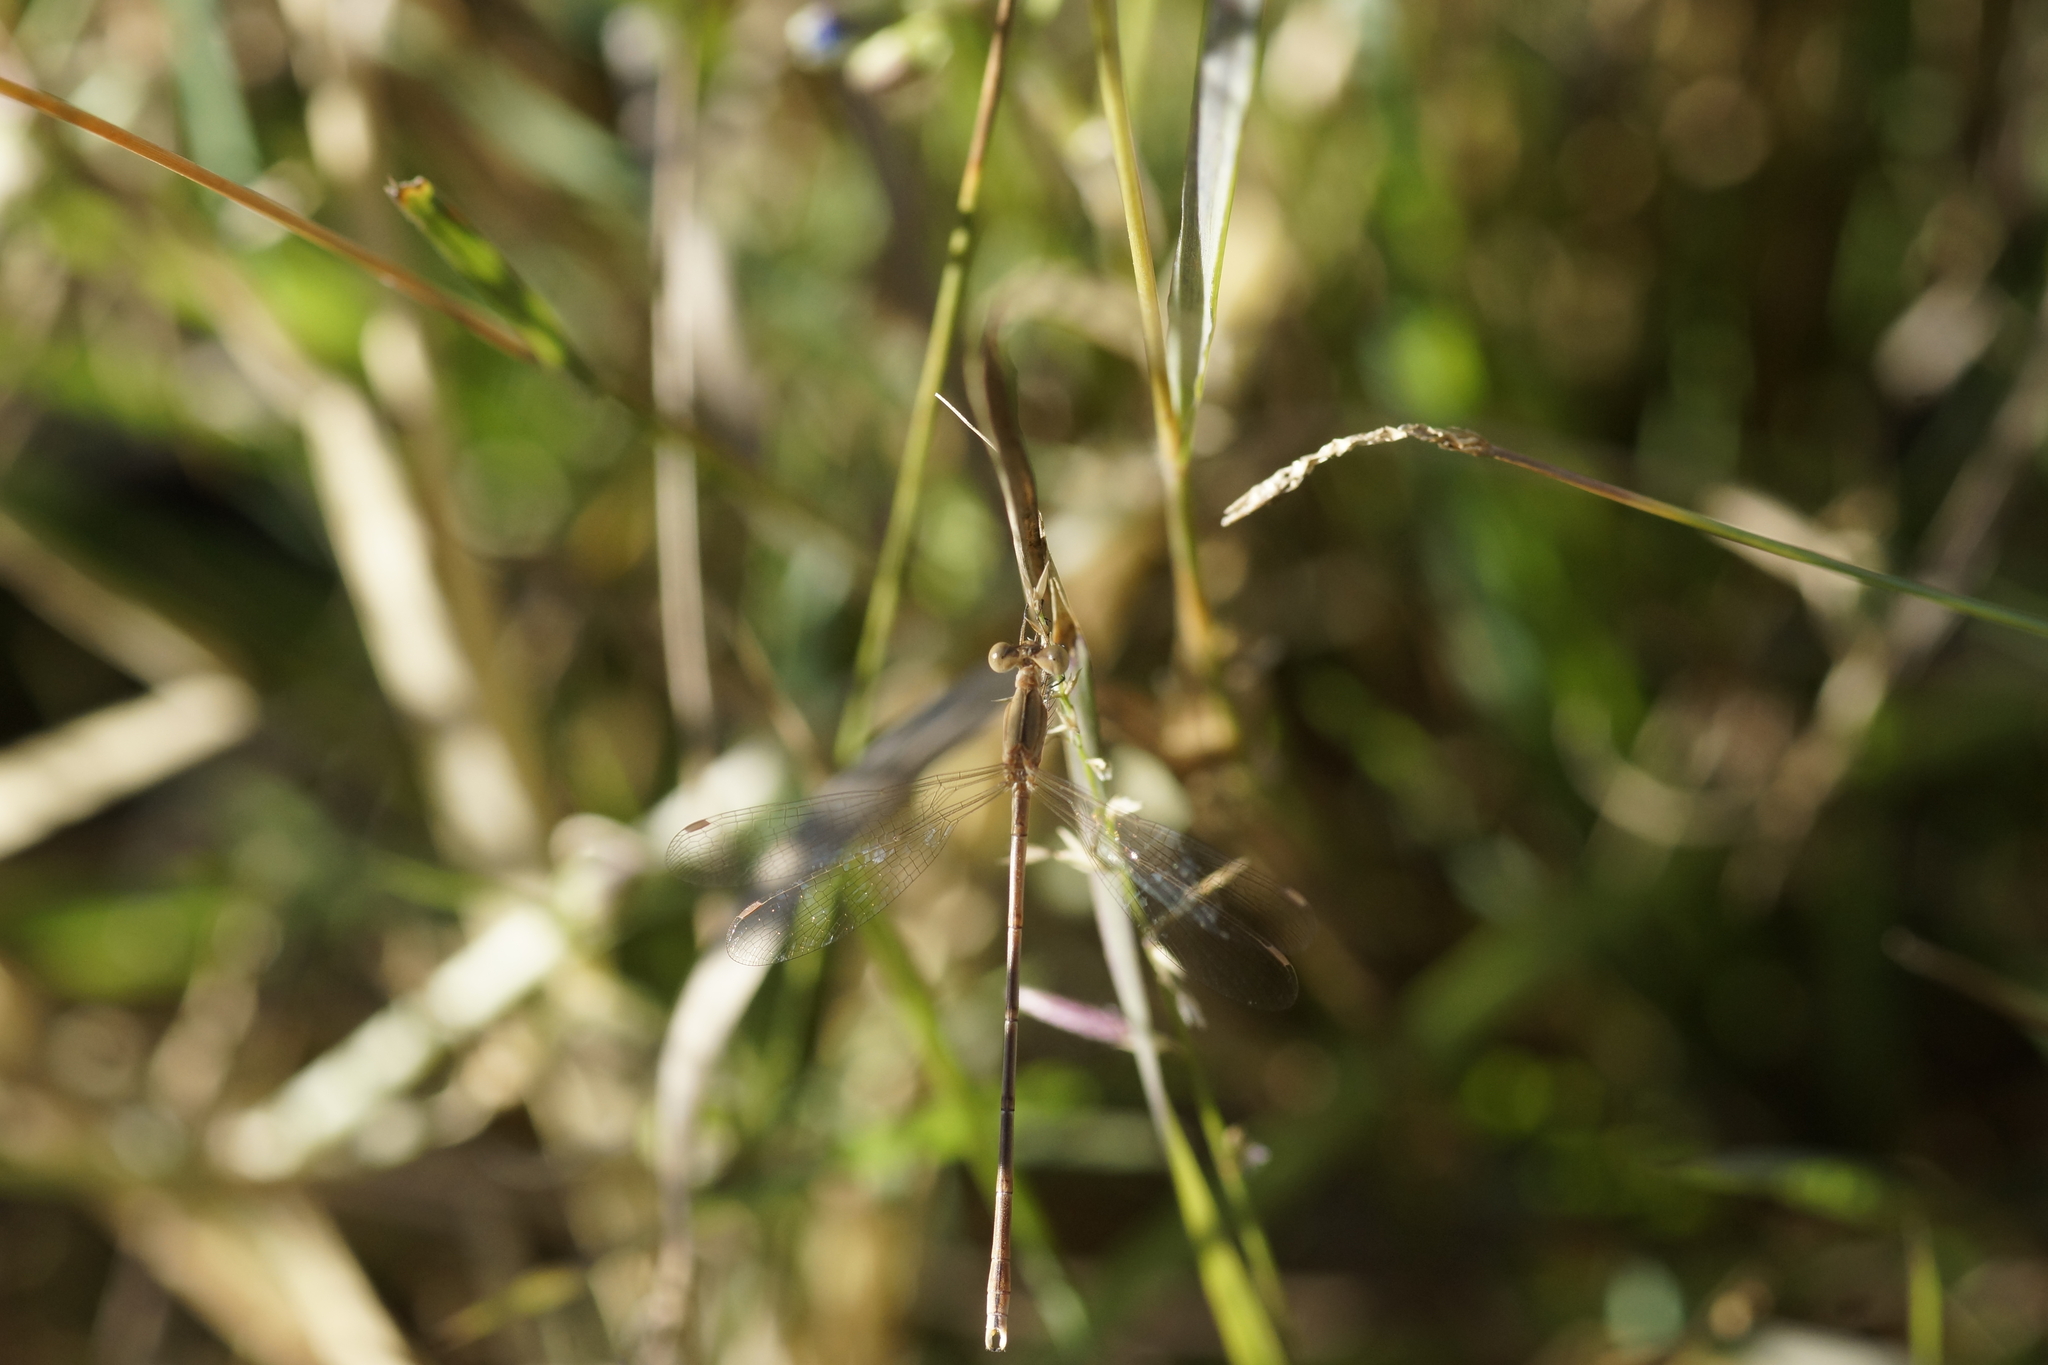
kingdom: Animalia
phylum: Arthropoda
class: Insecta
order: Odonata
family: Lestidae
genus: Lestes
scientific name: Lestes concinnus
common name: Dusky spreadwing
